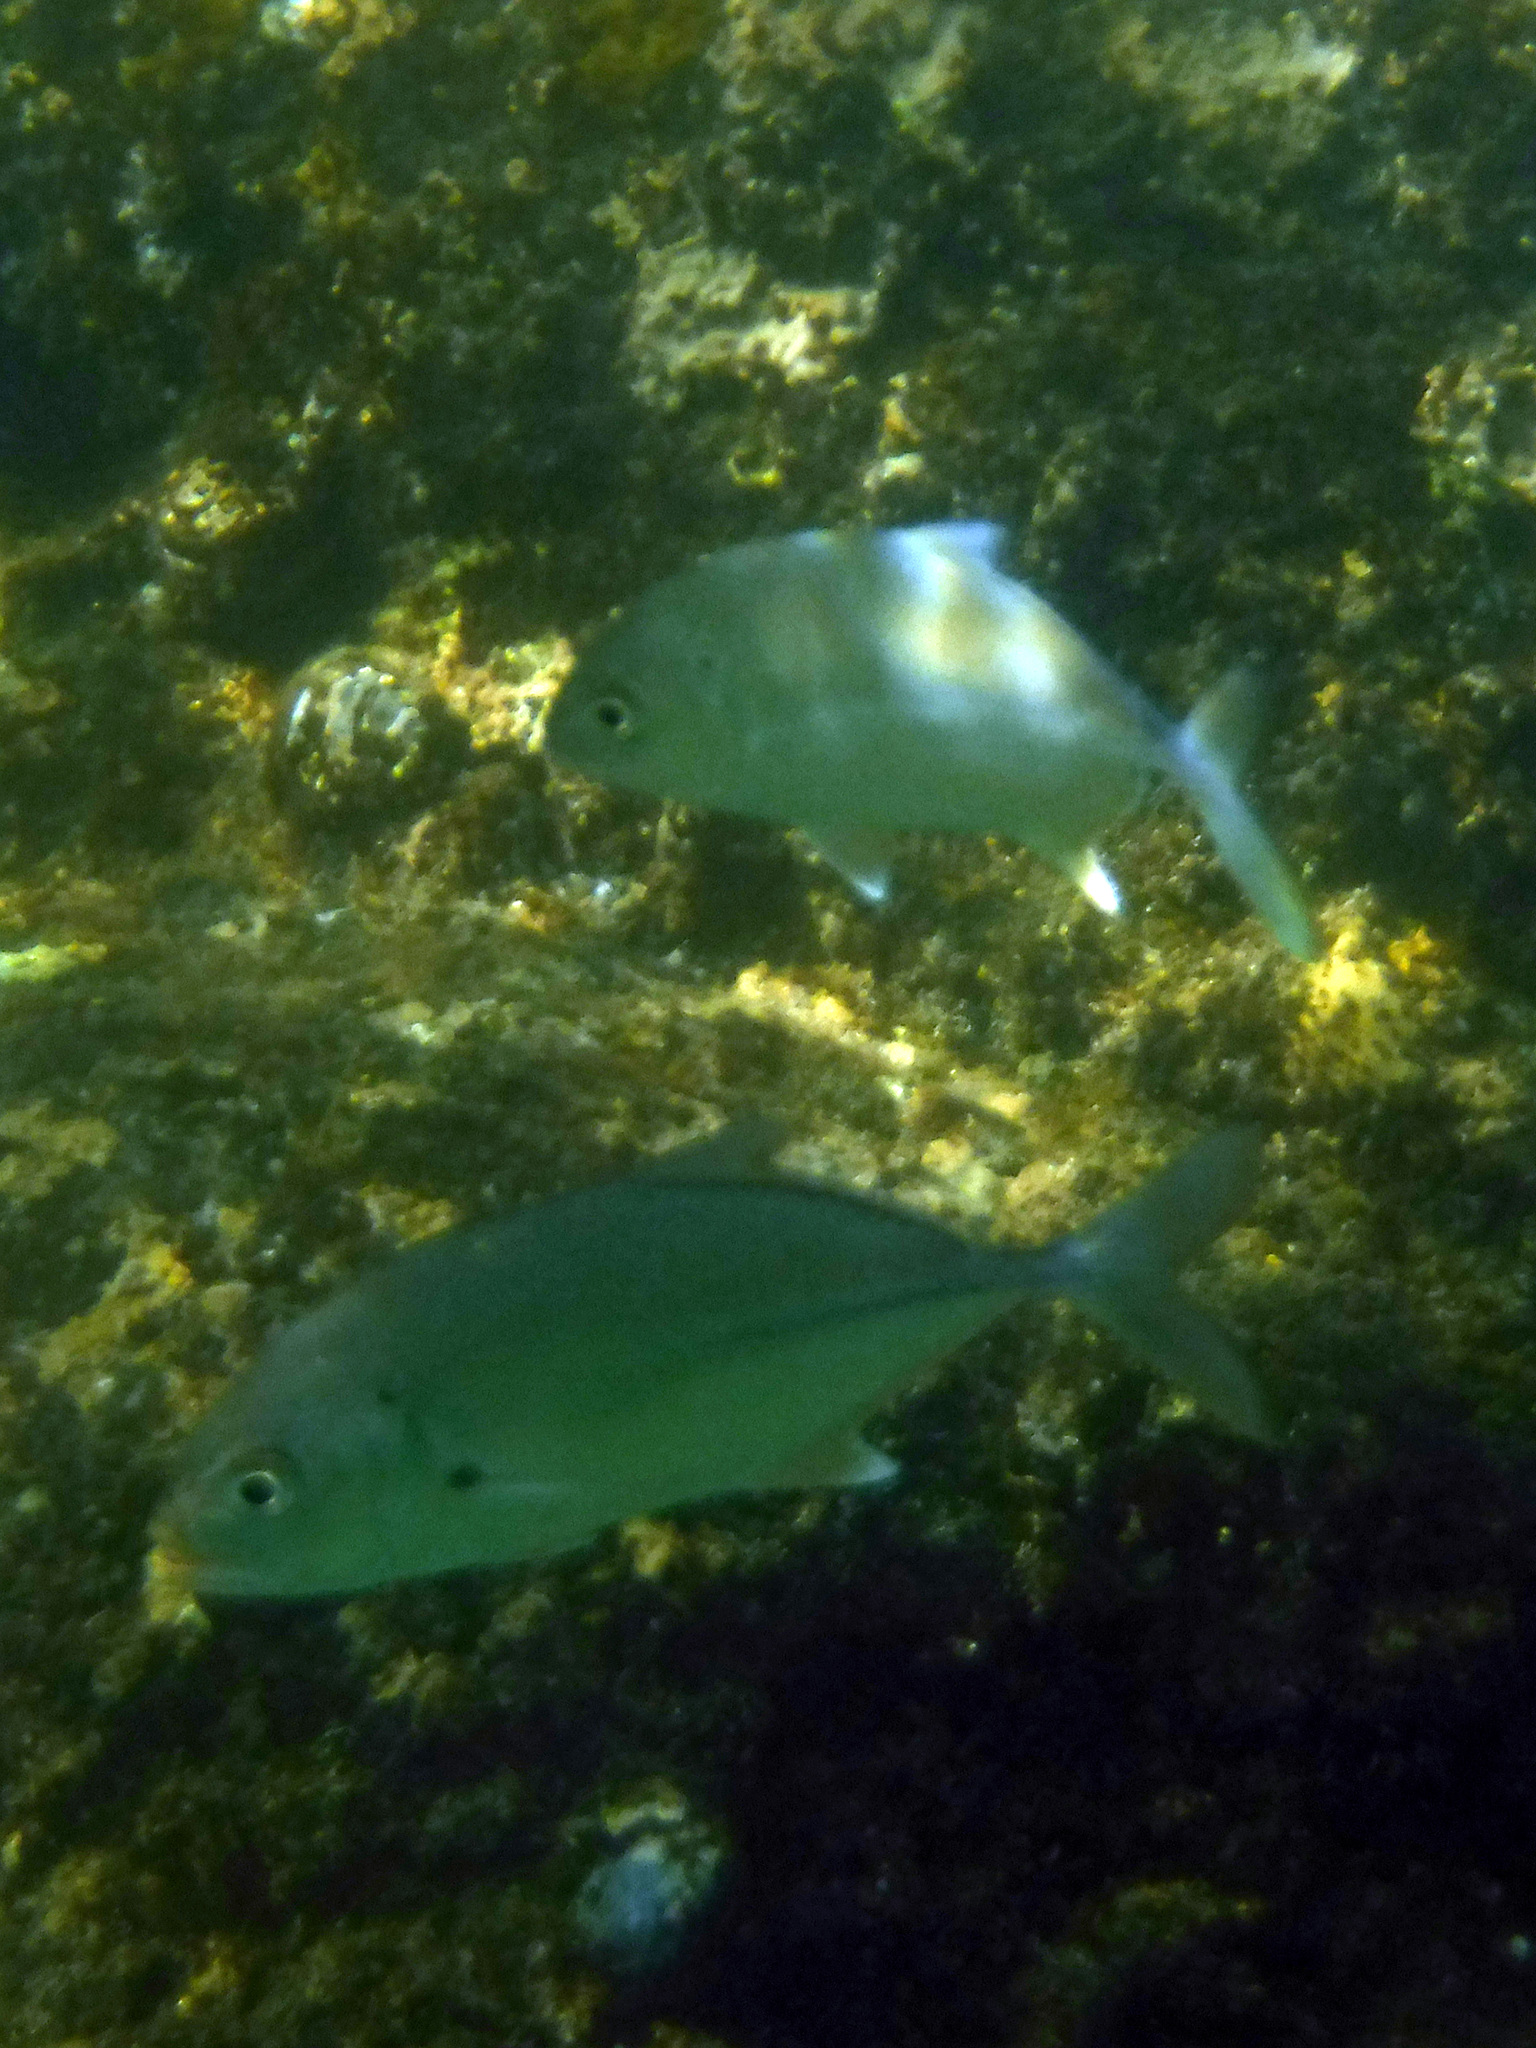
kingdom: Animalia
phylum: Chordata
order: Perciformes
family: Carangidae
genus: Caranx
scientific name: Caranx sexfasciatus
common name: Bigeye trevally
